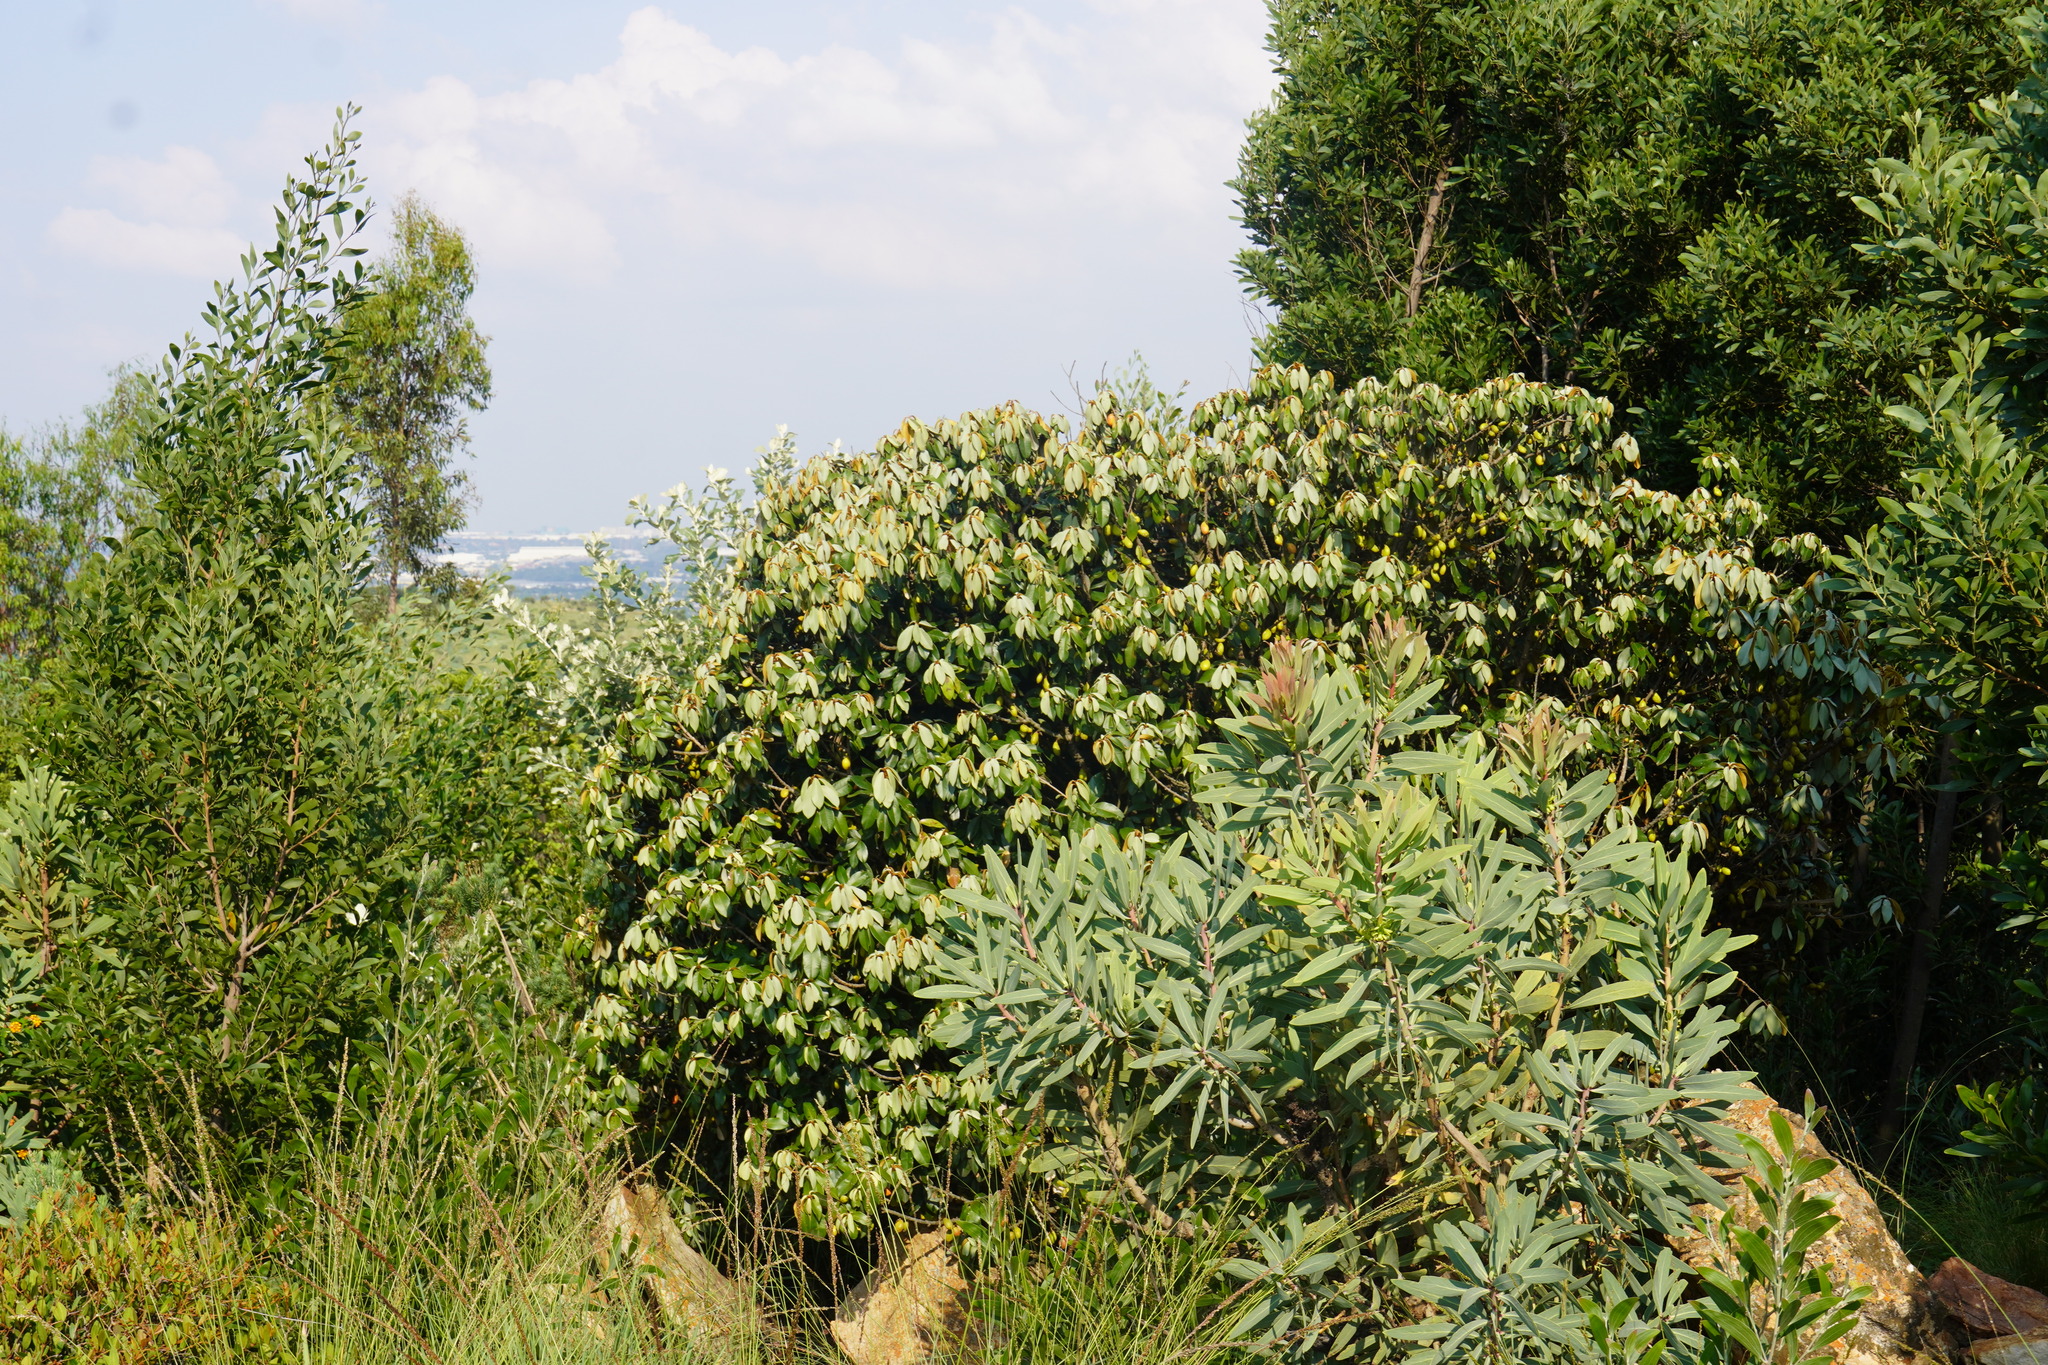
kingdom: Plantae
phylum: Tracheophyta
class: Magnoliopsida
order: Ericales
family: Sapotaceae
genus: Englerophytum
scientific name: Englerophytum magalismontanum
